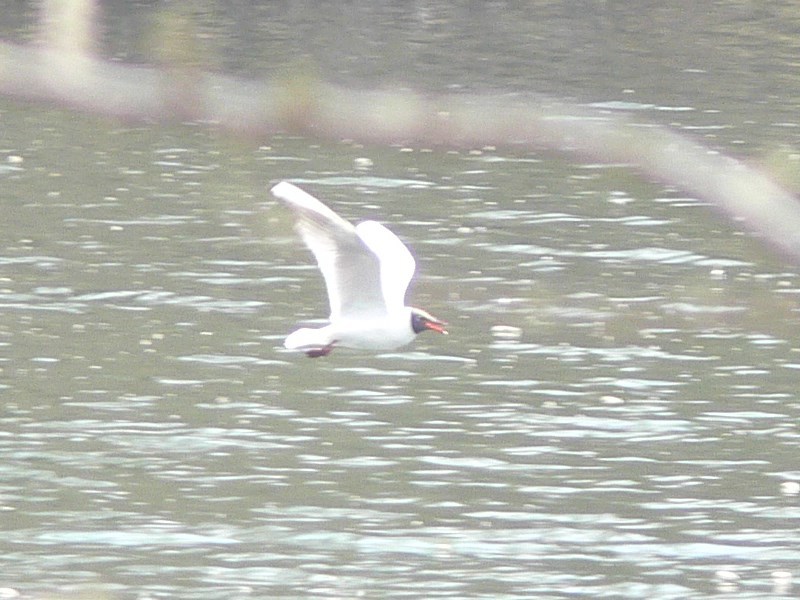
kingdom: Animalia
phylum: Chordata
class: Aves
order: Charadriiformes
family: Laridae
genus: Chroicocephalus
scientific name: Chroicocephalus ridibundus
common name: Black-headed gull
